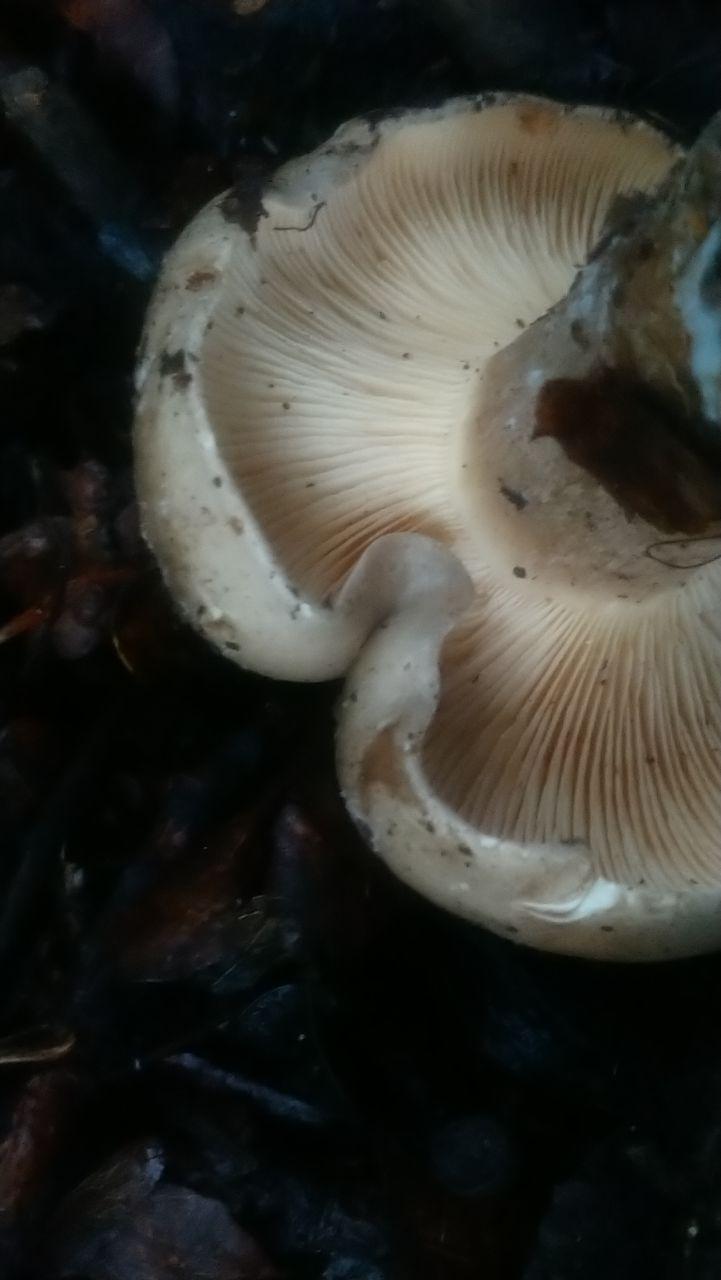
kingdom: Fungi
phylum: Basidiomycota
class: Agaricomycetes
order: Agaricales
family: Tricholomataceae
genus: Clitocybe
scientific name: Clitocybe nebularis
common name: Clouded agaric
